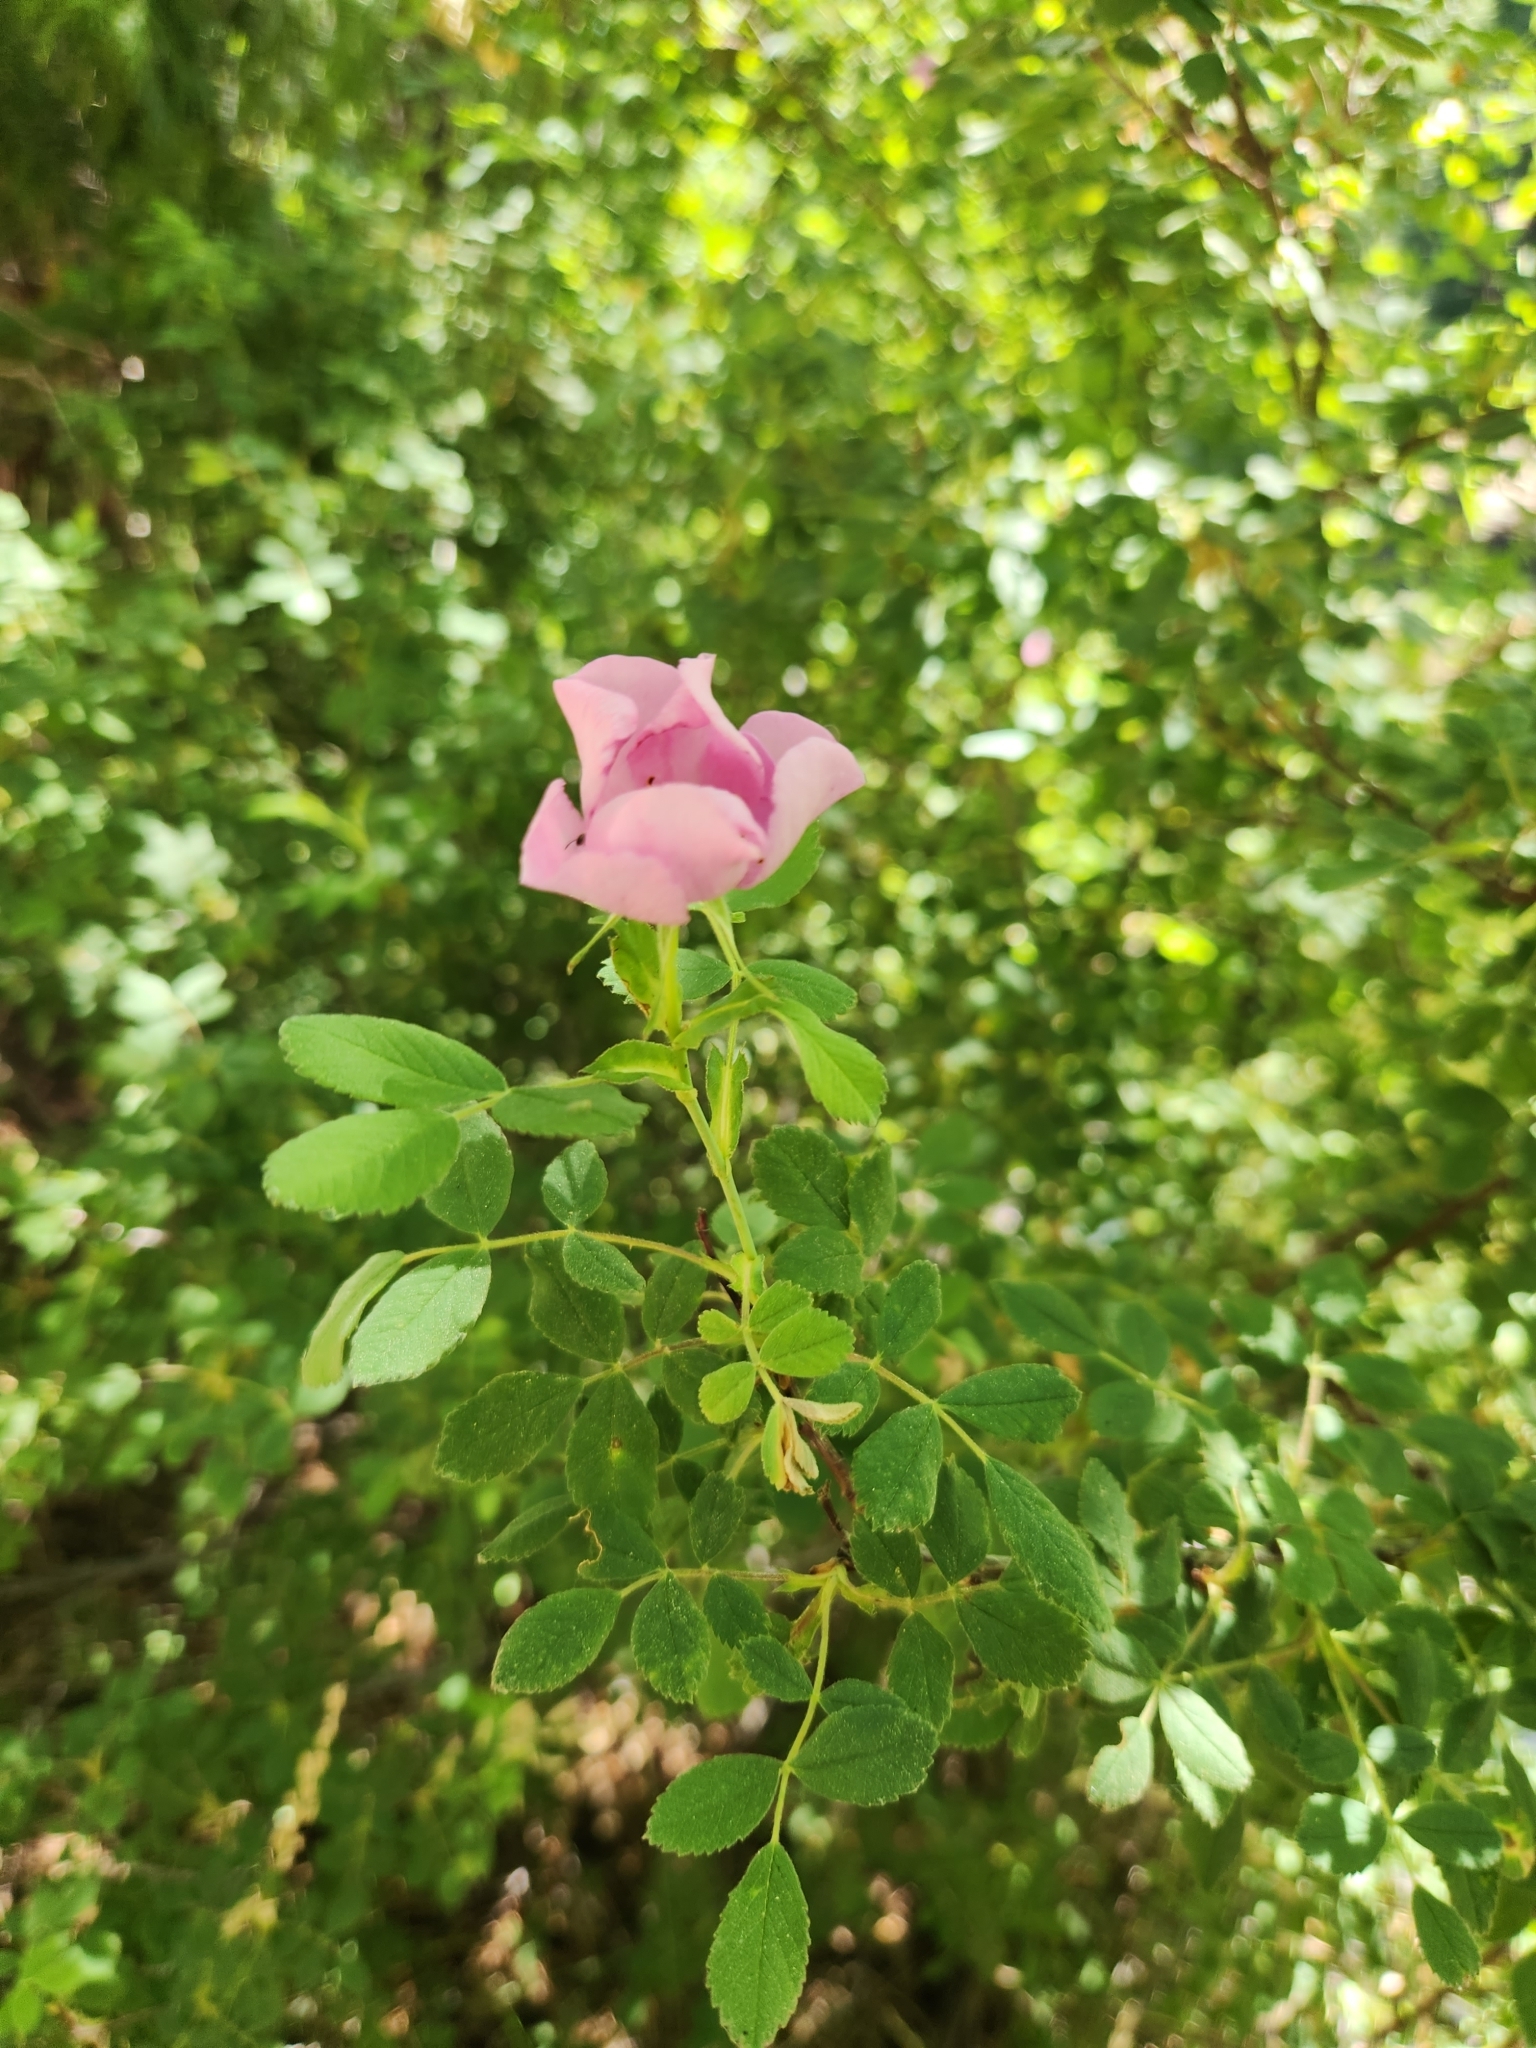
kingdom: Plantae
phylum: Tracheophyta
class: Magnoliopsida
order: Rosales
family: Rosaceae
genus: Rosa
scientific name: Rosa californica
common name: California rose
